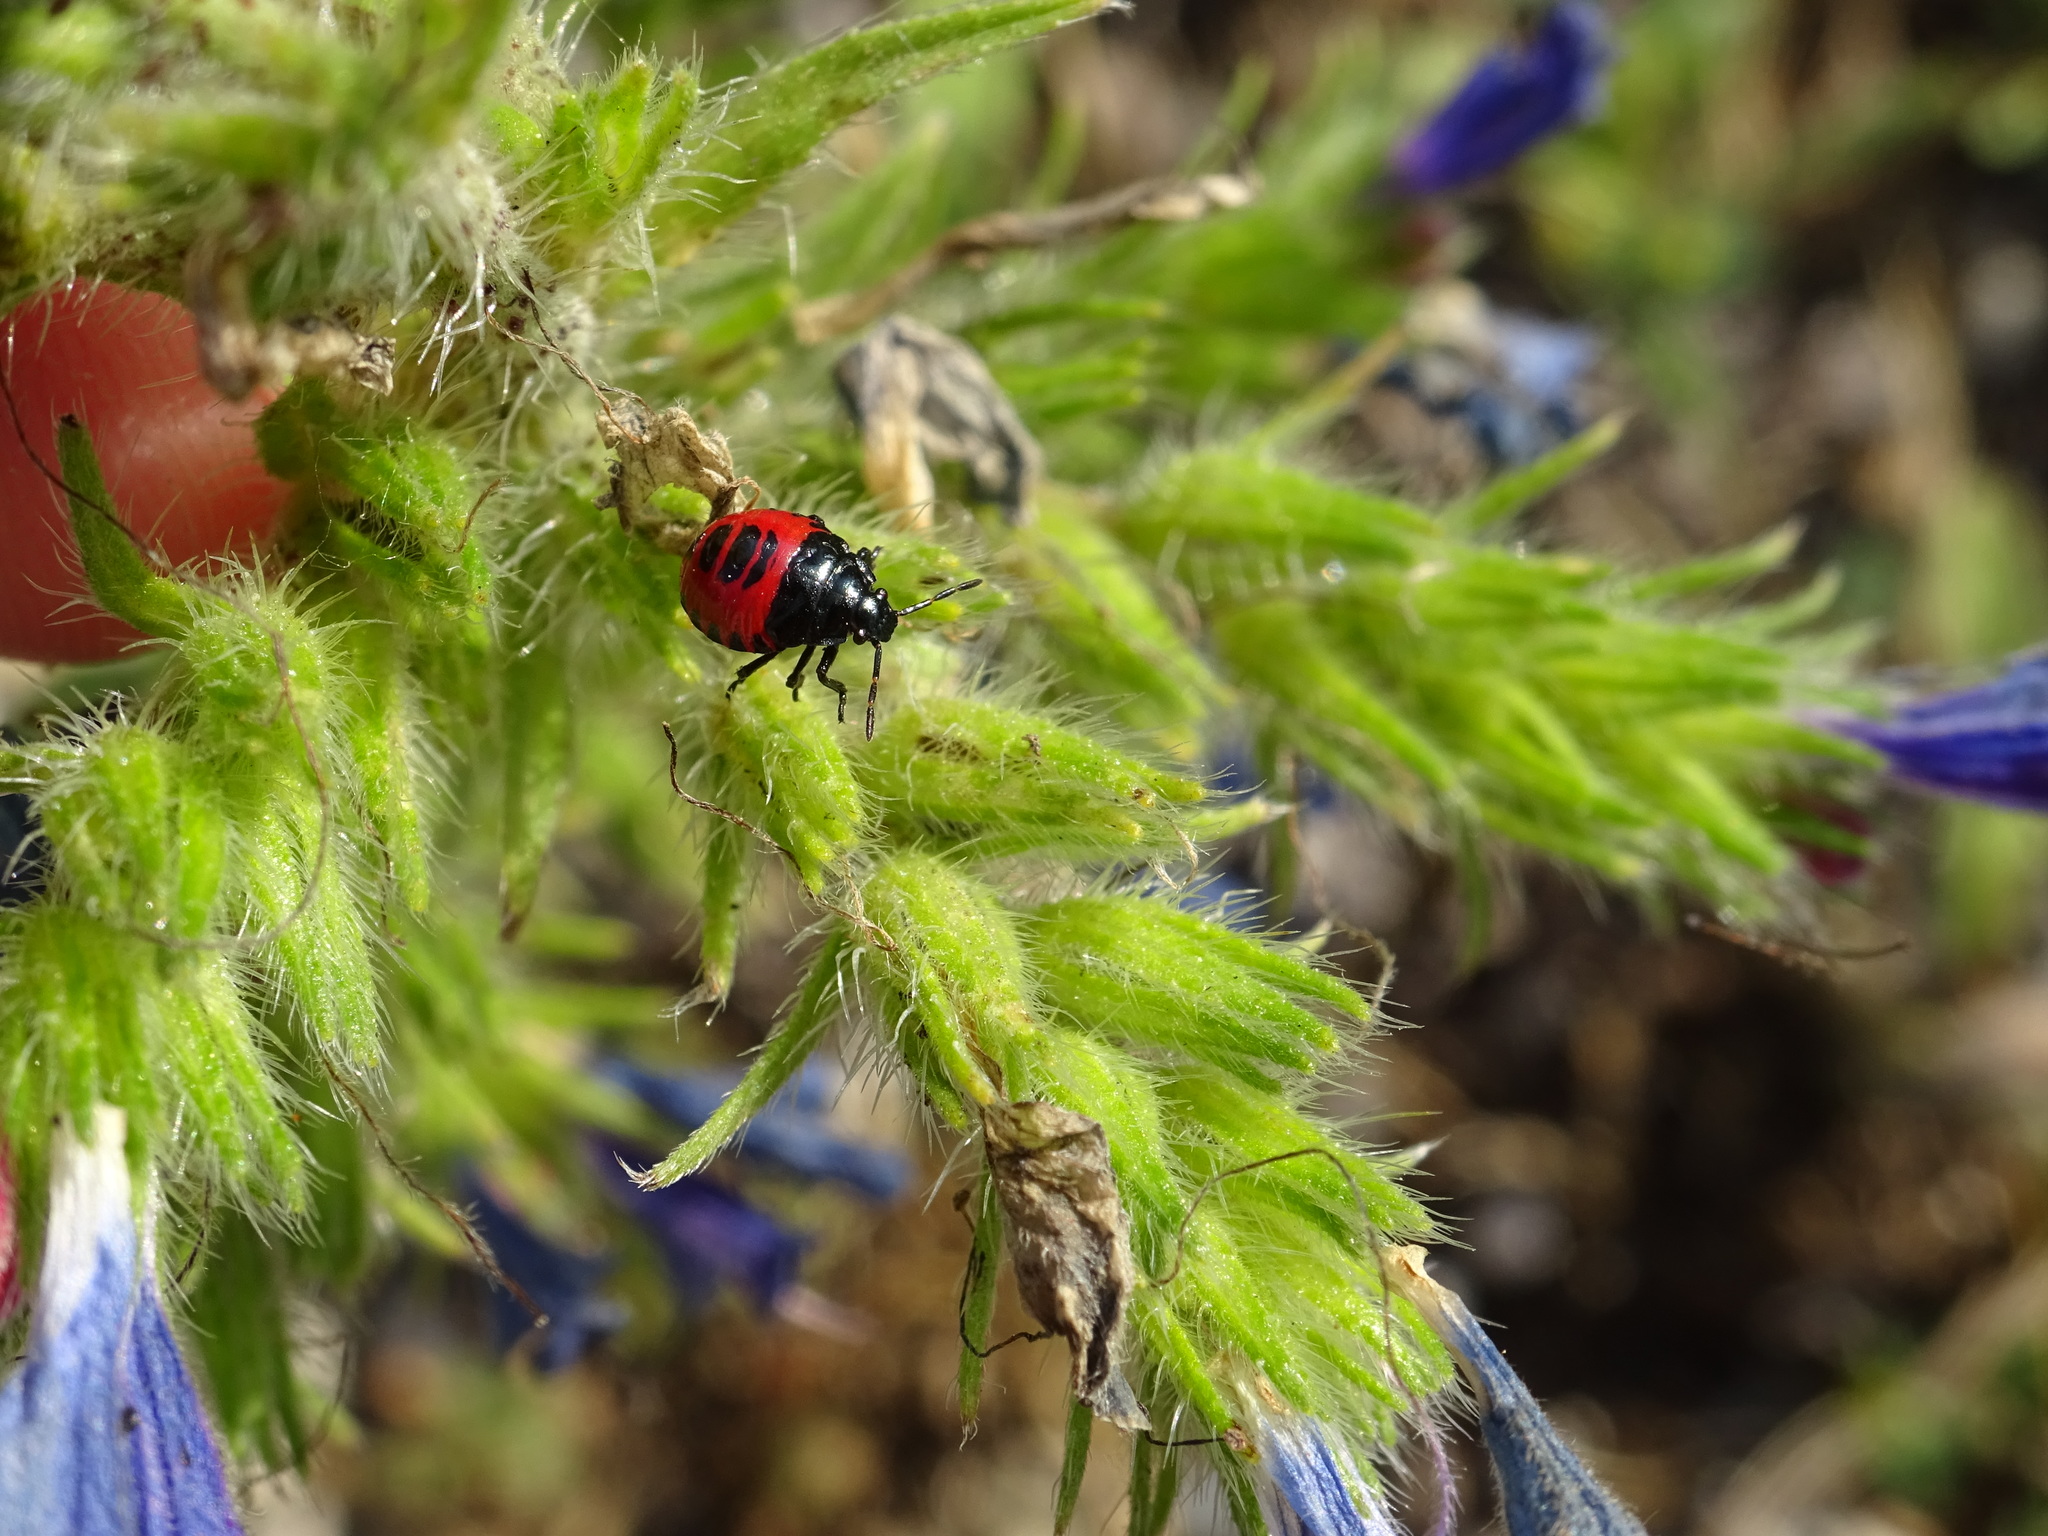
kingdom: Animalia
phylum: Arthropoda
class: Insecta
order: Hemiptera
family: Pentatomidae
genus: Zicrona
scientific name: Zicrona caerulea
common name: Blue shieldbug
